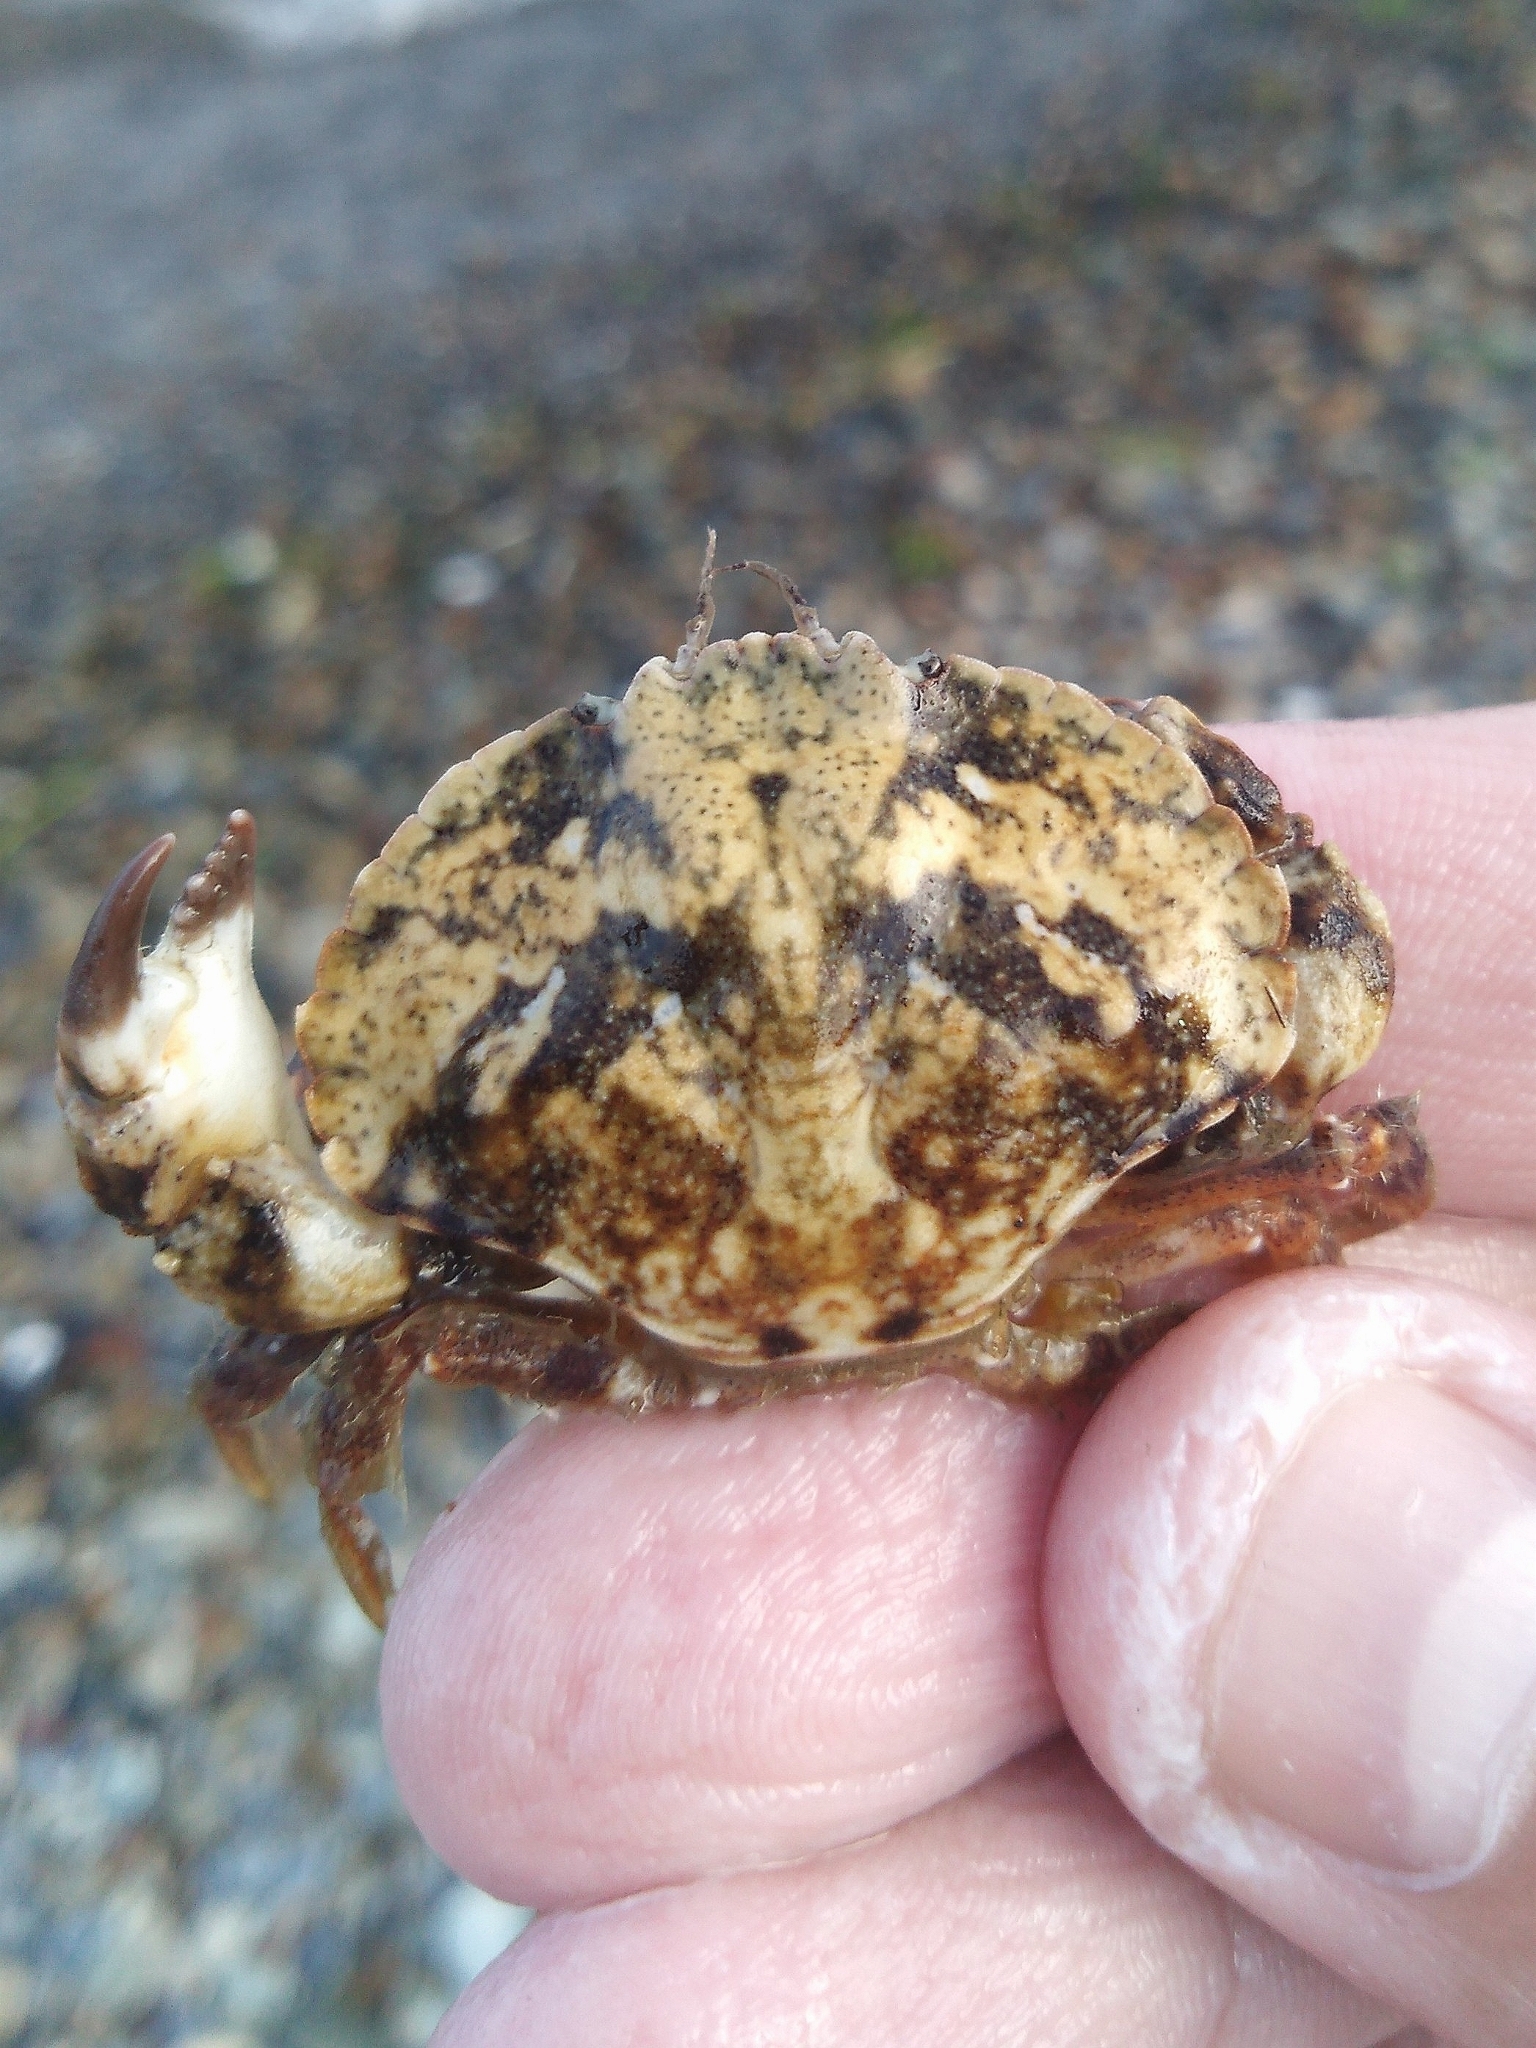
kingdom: Animalia
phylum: Arthropoda
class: Malacostraca
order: Decapoda
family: Cancridae
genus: Glebocarcinus
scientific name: Glebocarcinus amphioetus
